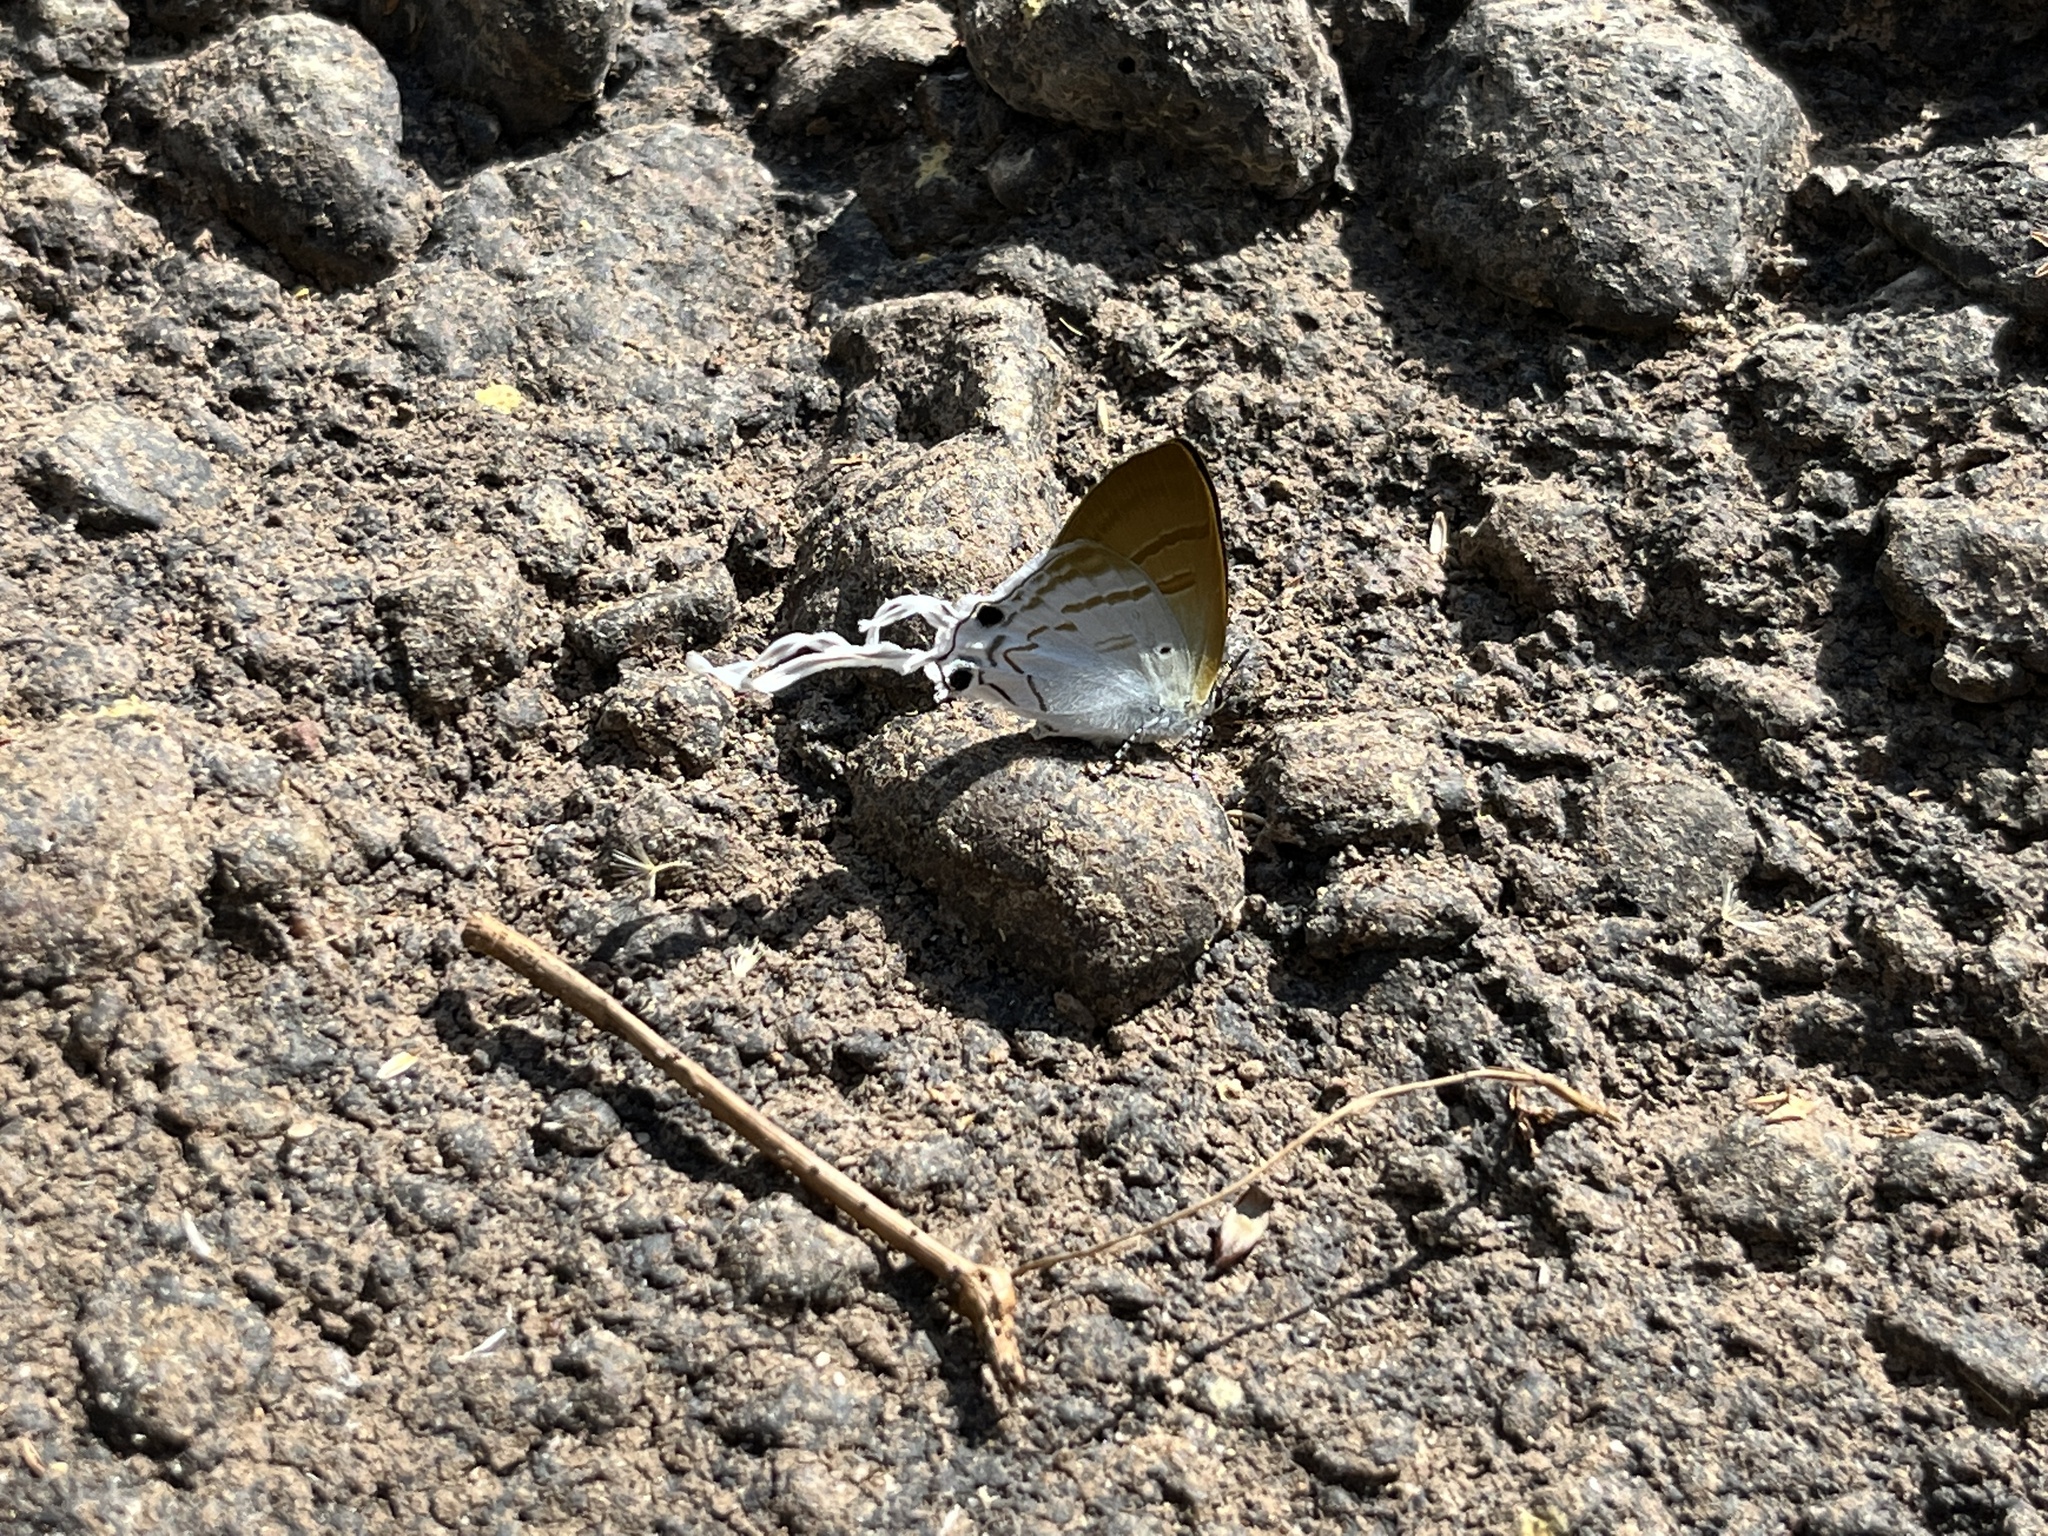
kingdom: Animalia
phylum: Arthropoda
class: Insecta
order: Lepidoptera
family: Lycaenidae
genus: Zeltus
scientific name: Zeltus amasa
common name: Fluffy tit
